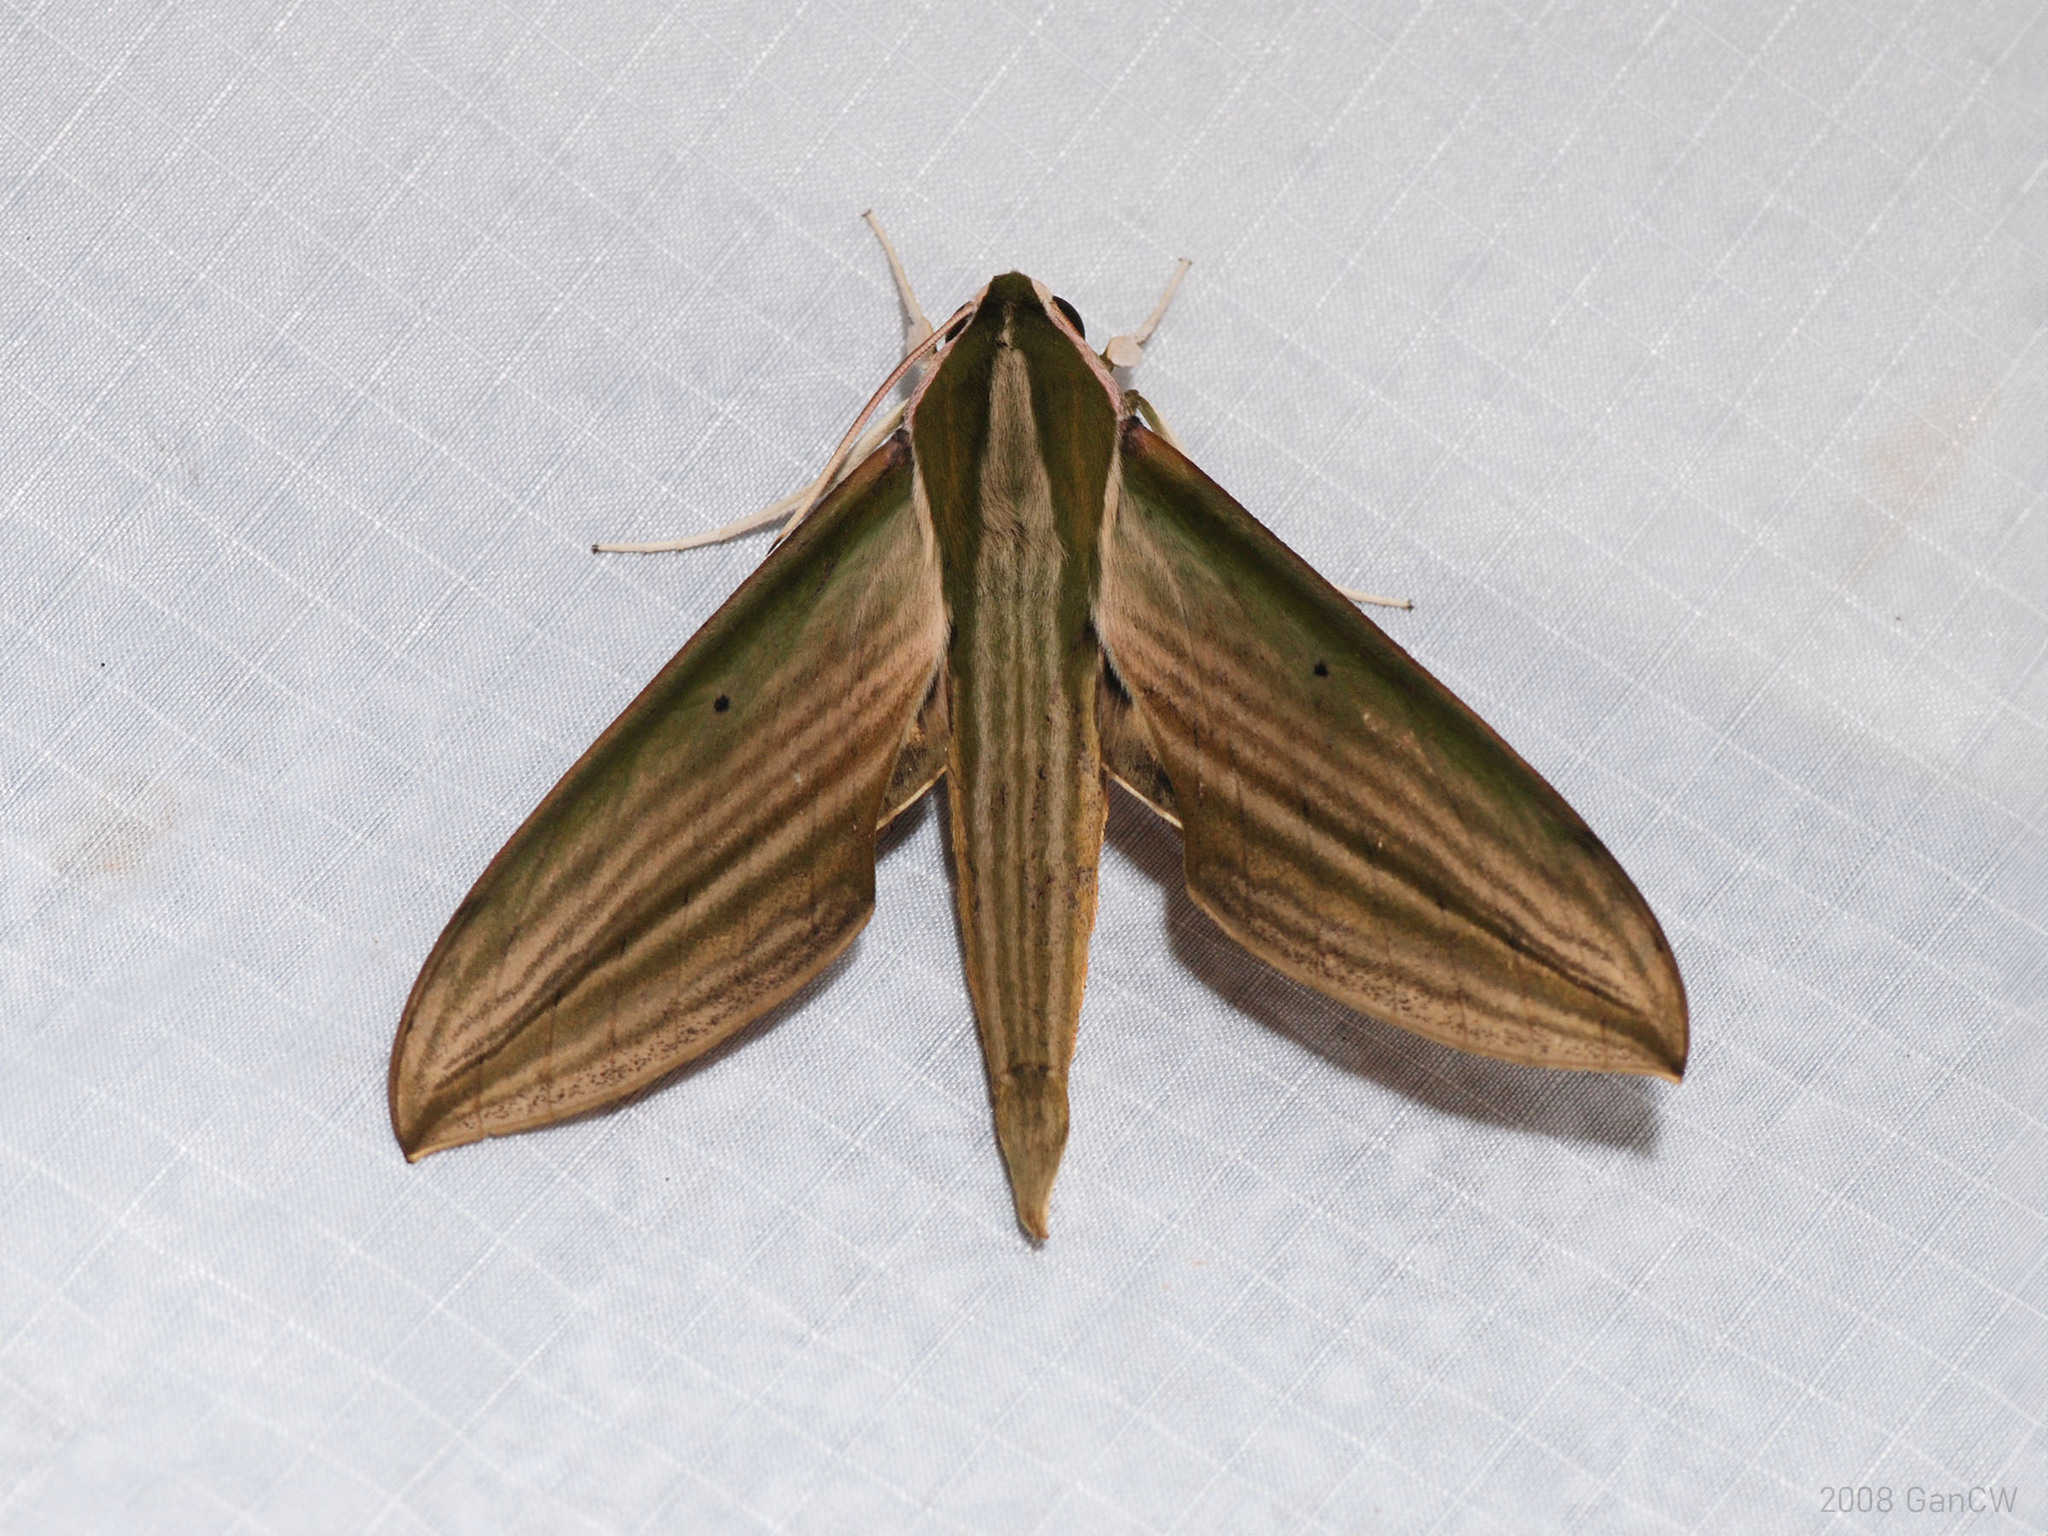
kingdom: Animalia
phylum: Arthropoda
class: Insecta
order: Lepidoptera
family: Sphingidae
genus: Cechetra
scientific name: Cechetra lineosa
